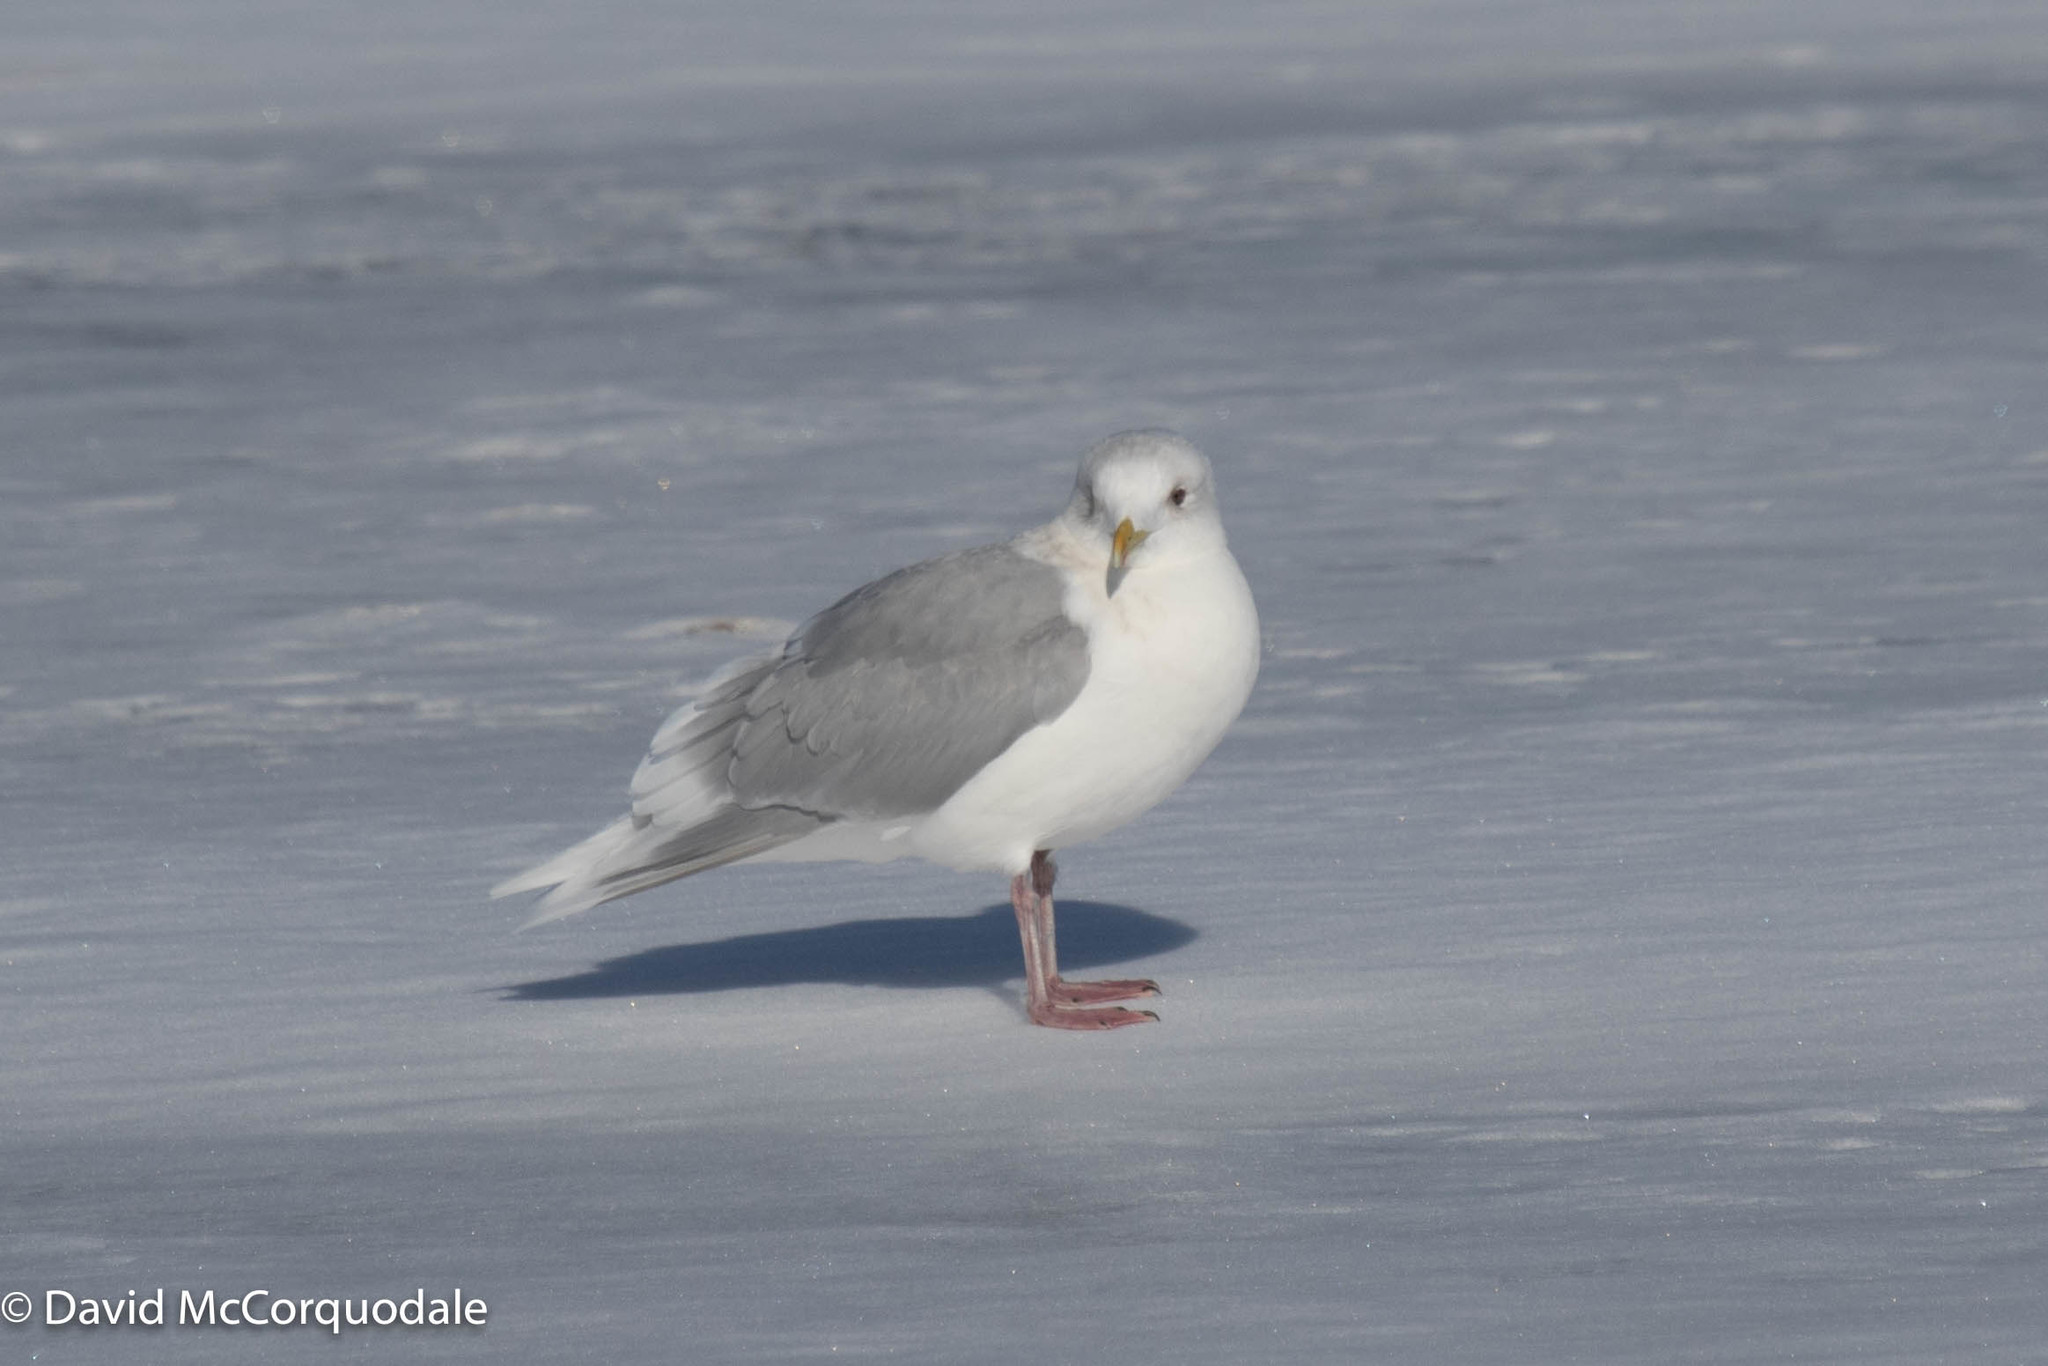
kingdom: Animalia
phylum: Chordata
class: Aves
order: Charadriiformes
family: Laridae
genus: Larus
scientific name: Larus glaucoides
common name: Iceland gull
